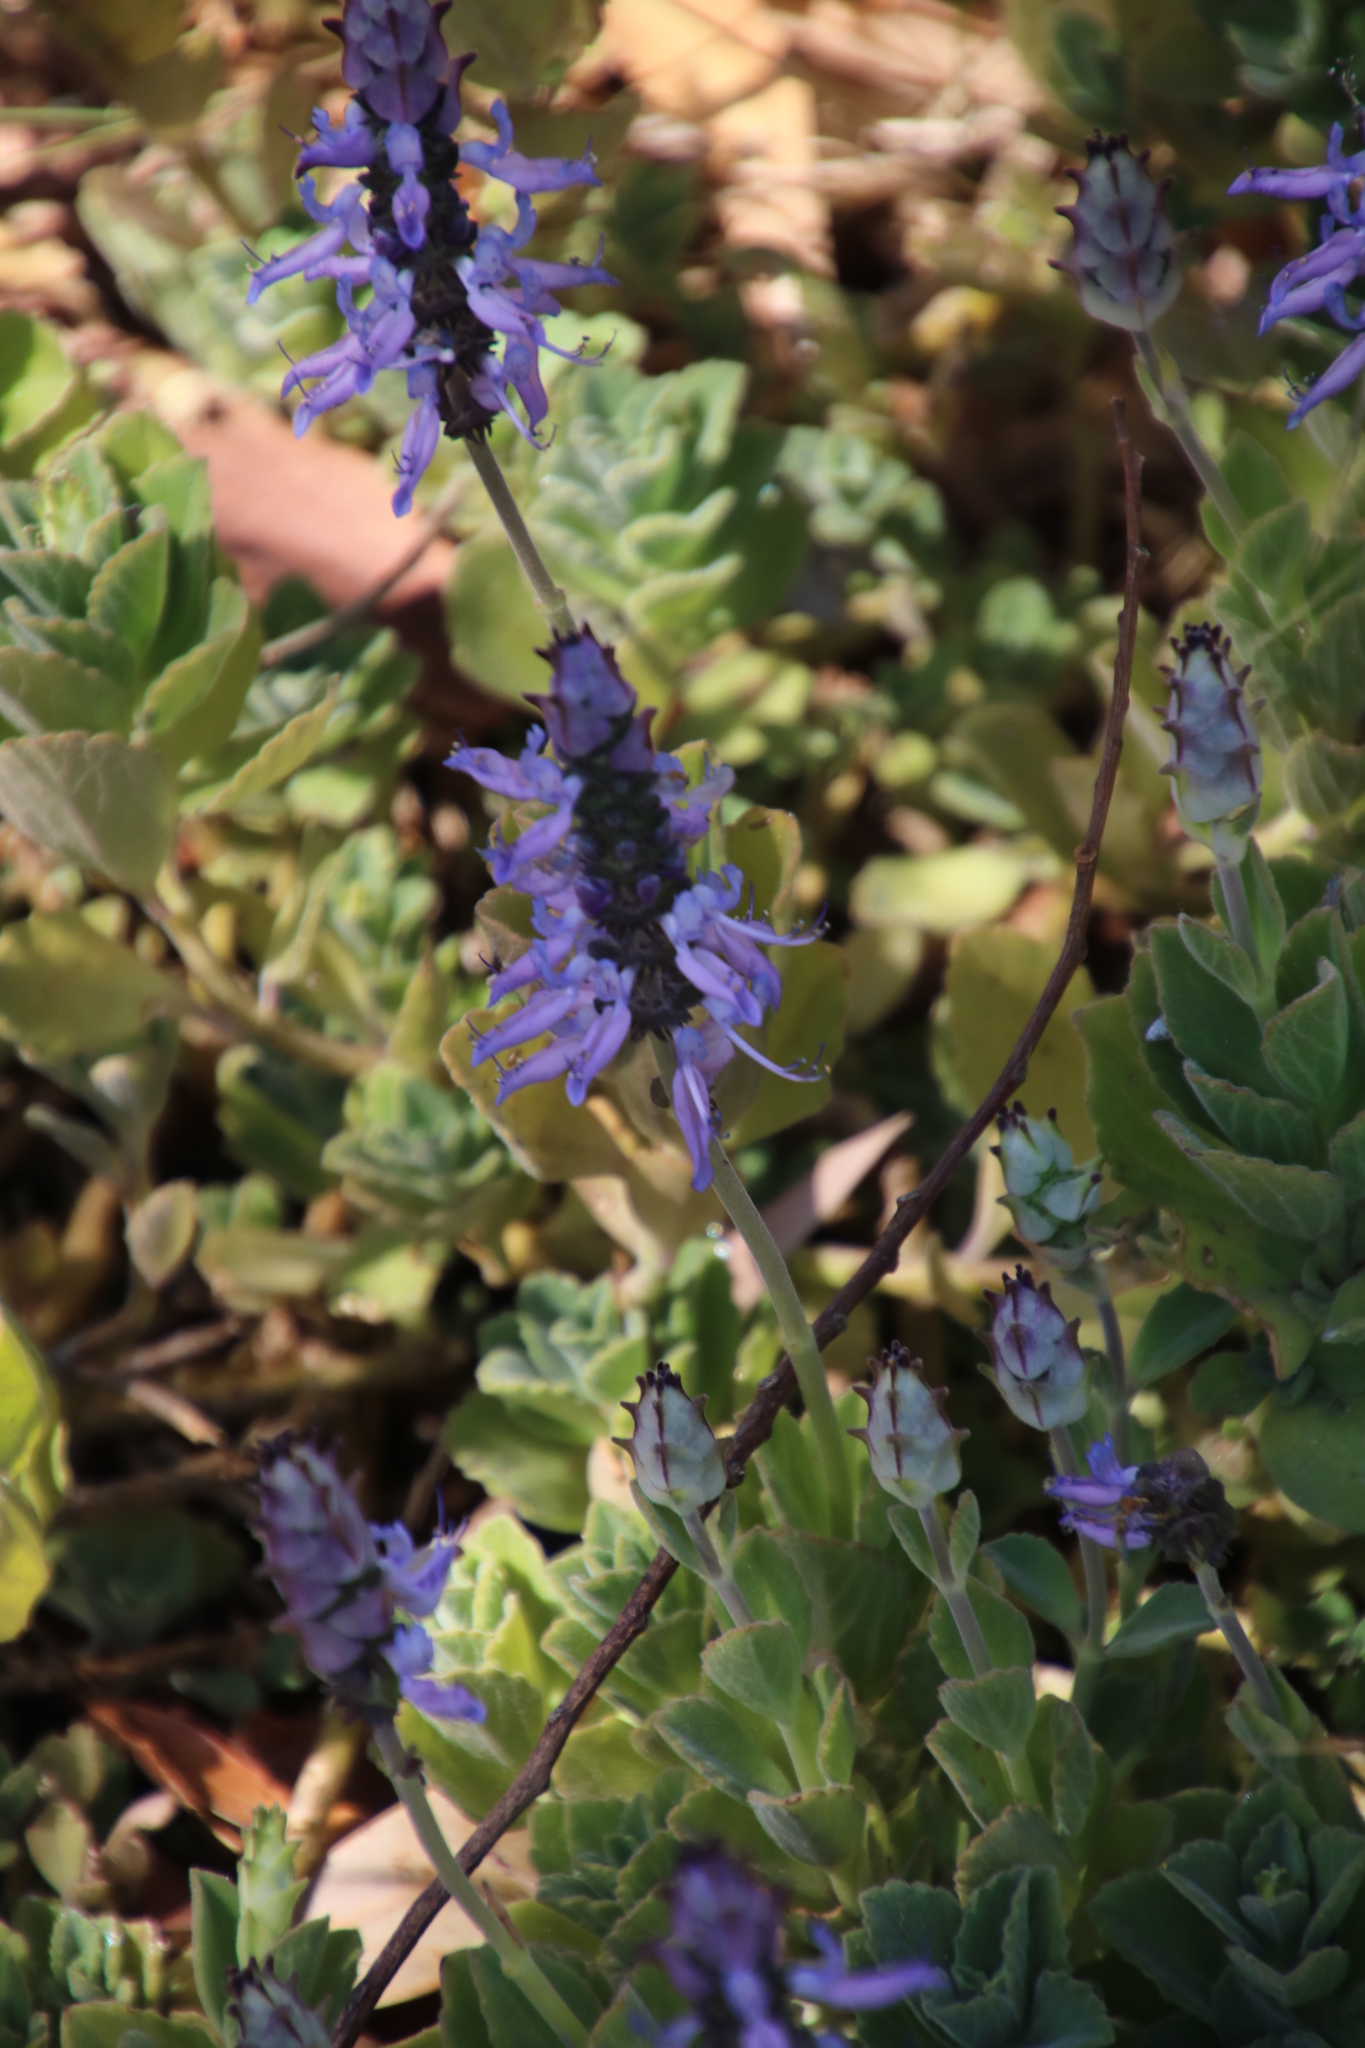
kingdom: Plantae
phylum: Tracheophyta
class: Magnoliopsida
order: Lamiales
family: Lamiaceae
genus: Coleus
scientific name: Coleus neochilus
